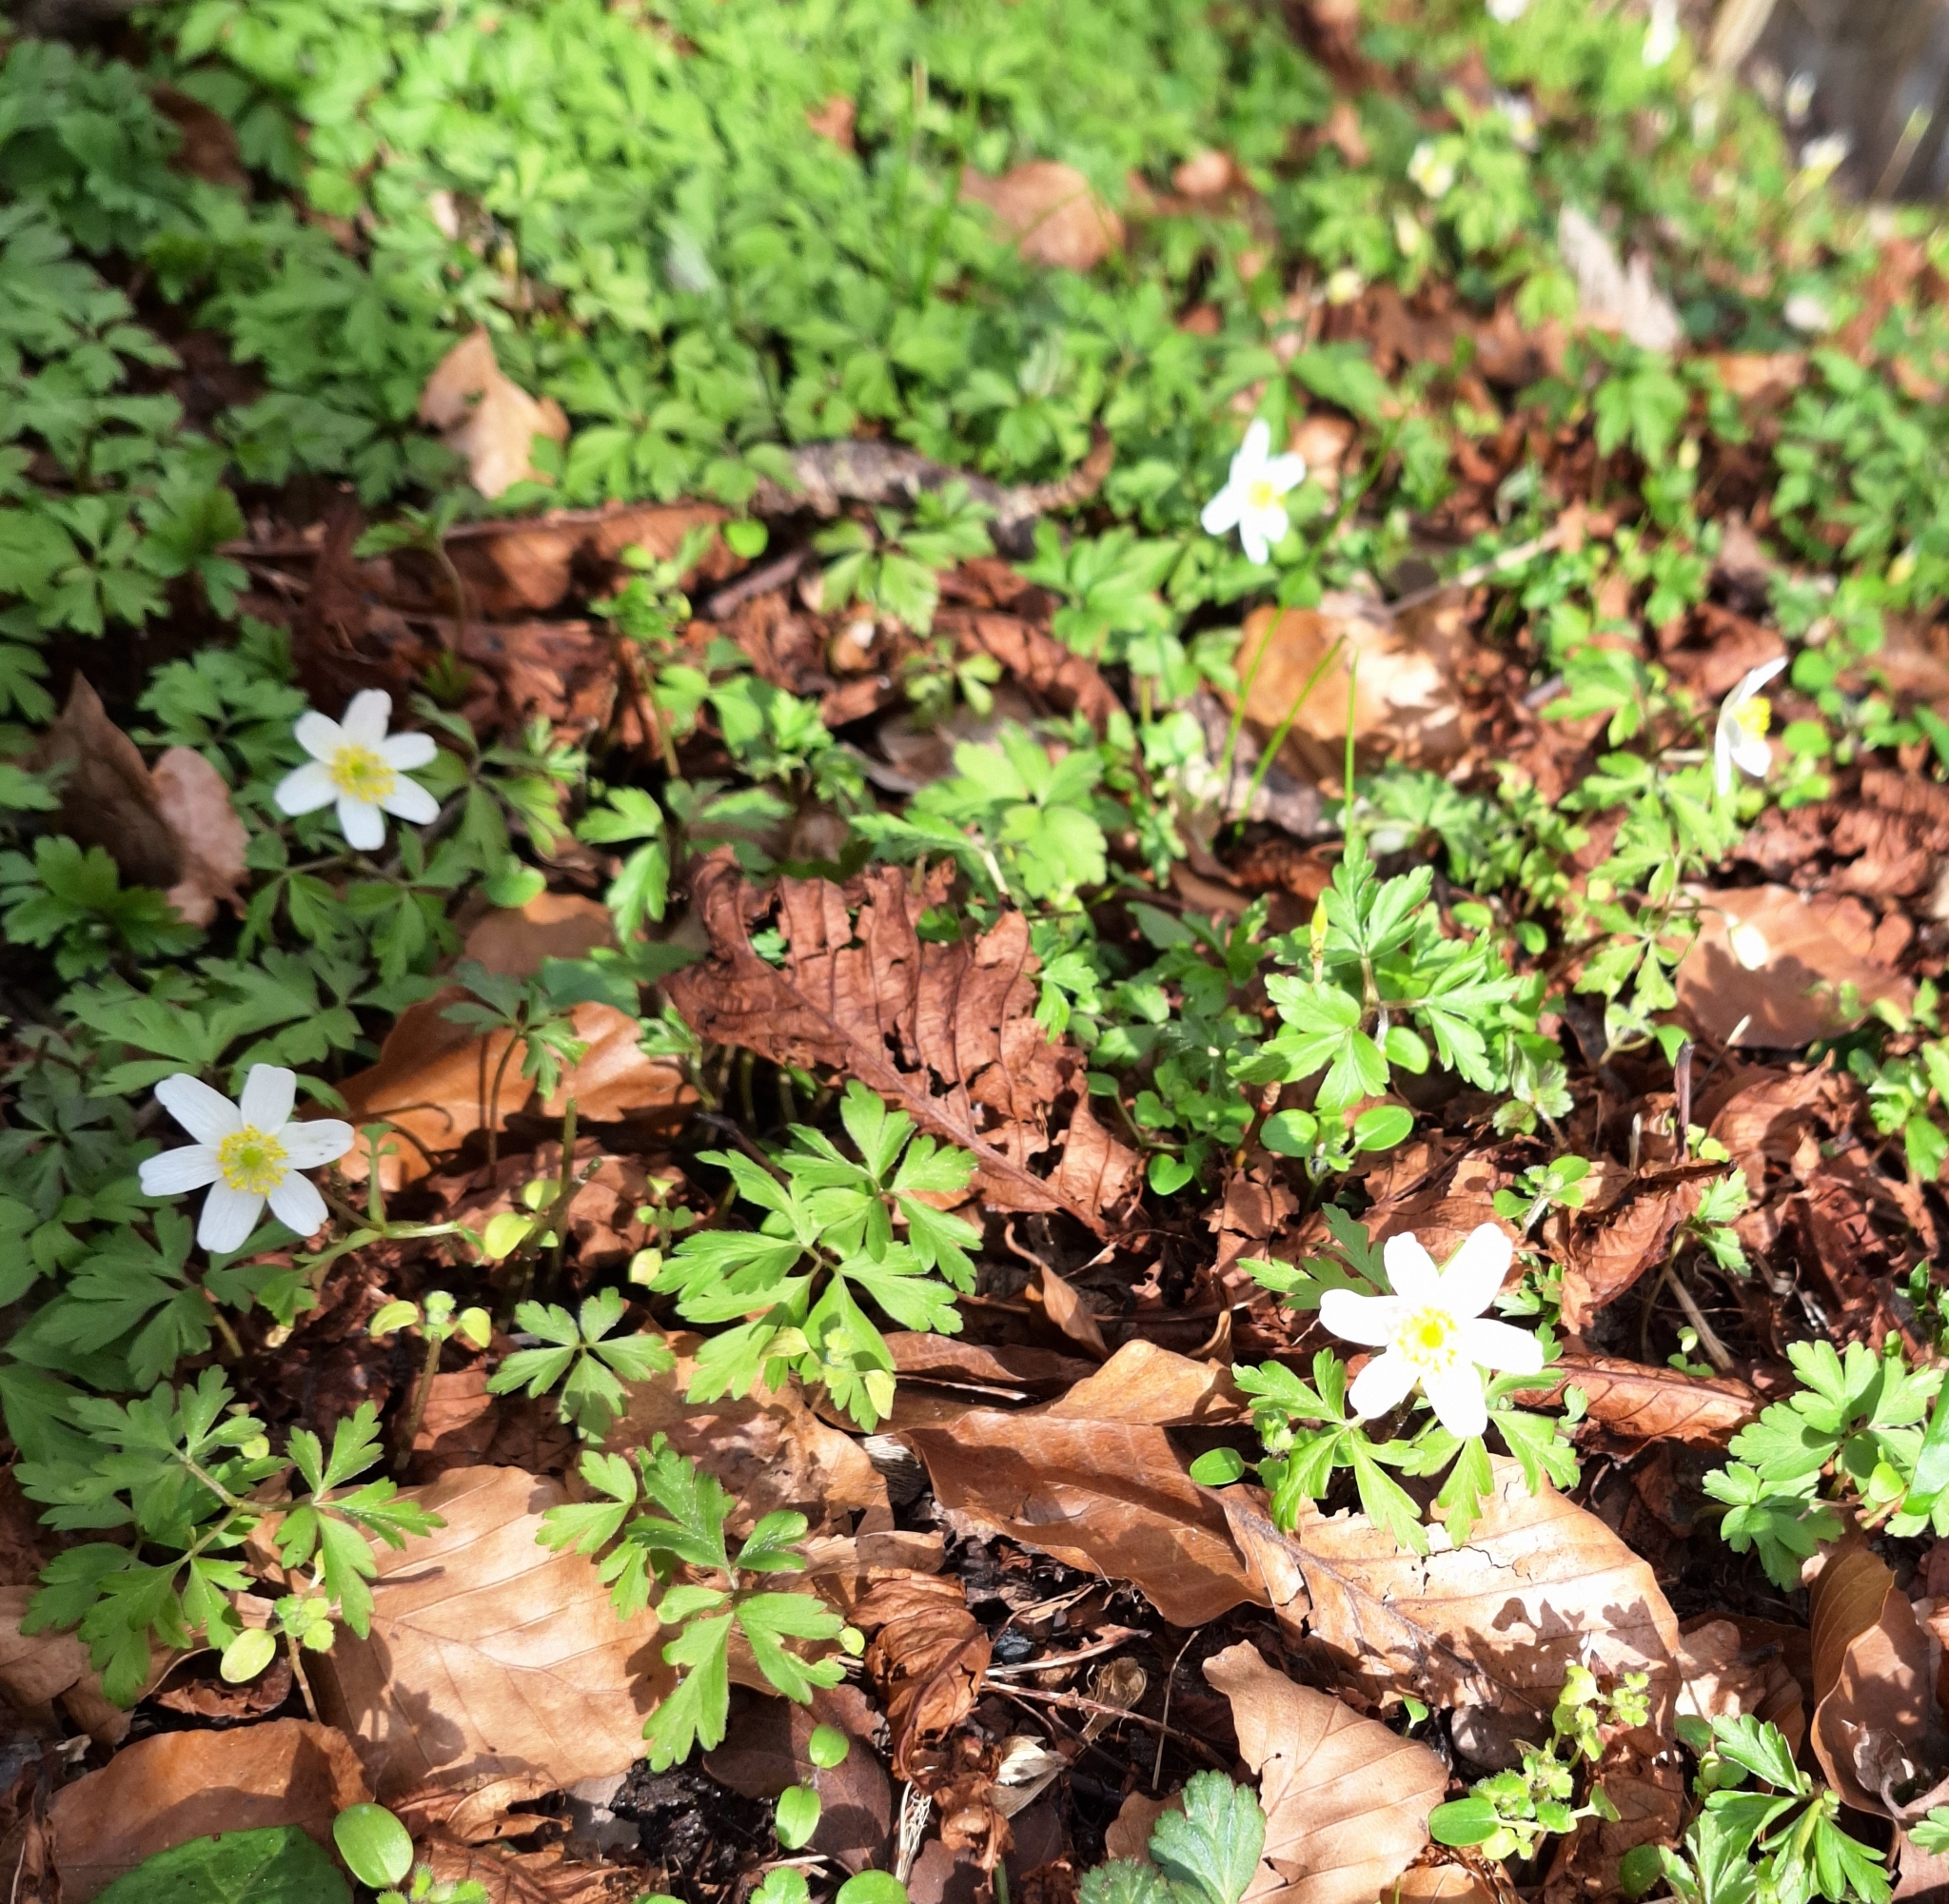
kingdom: Plantae
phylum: Tracheophyta
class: Magnoliopsida
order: Ranunculales
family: Ranunculaceae
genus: Anemone
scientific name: Anemone nemorosa
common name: Wood anemone
